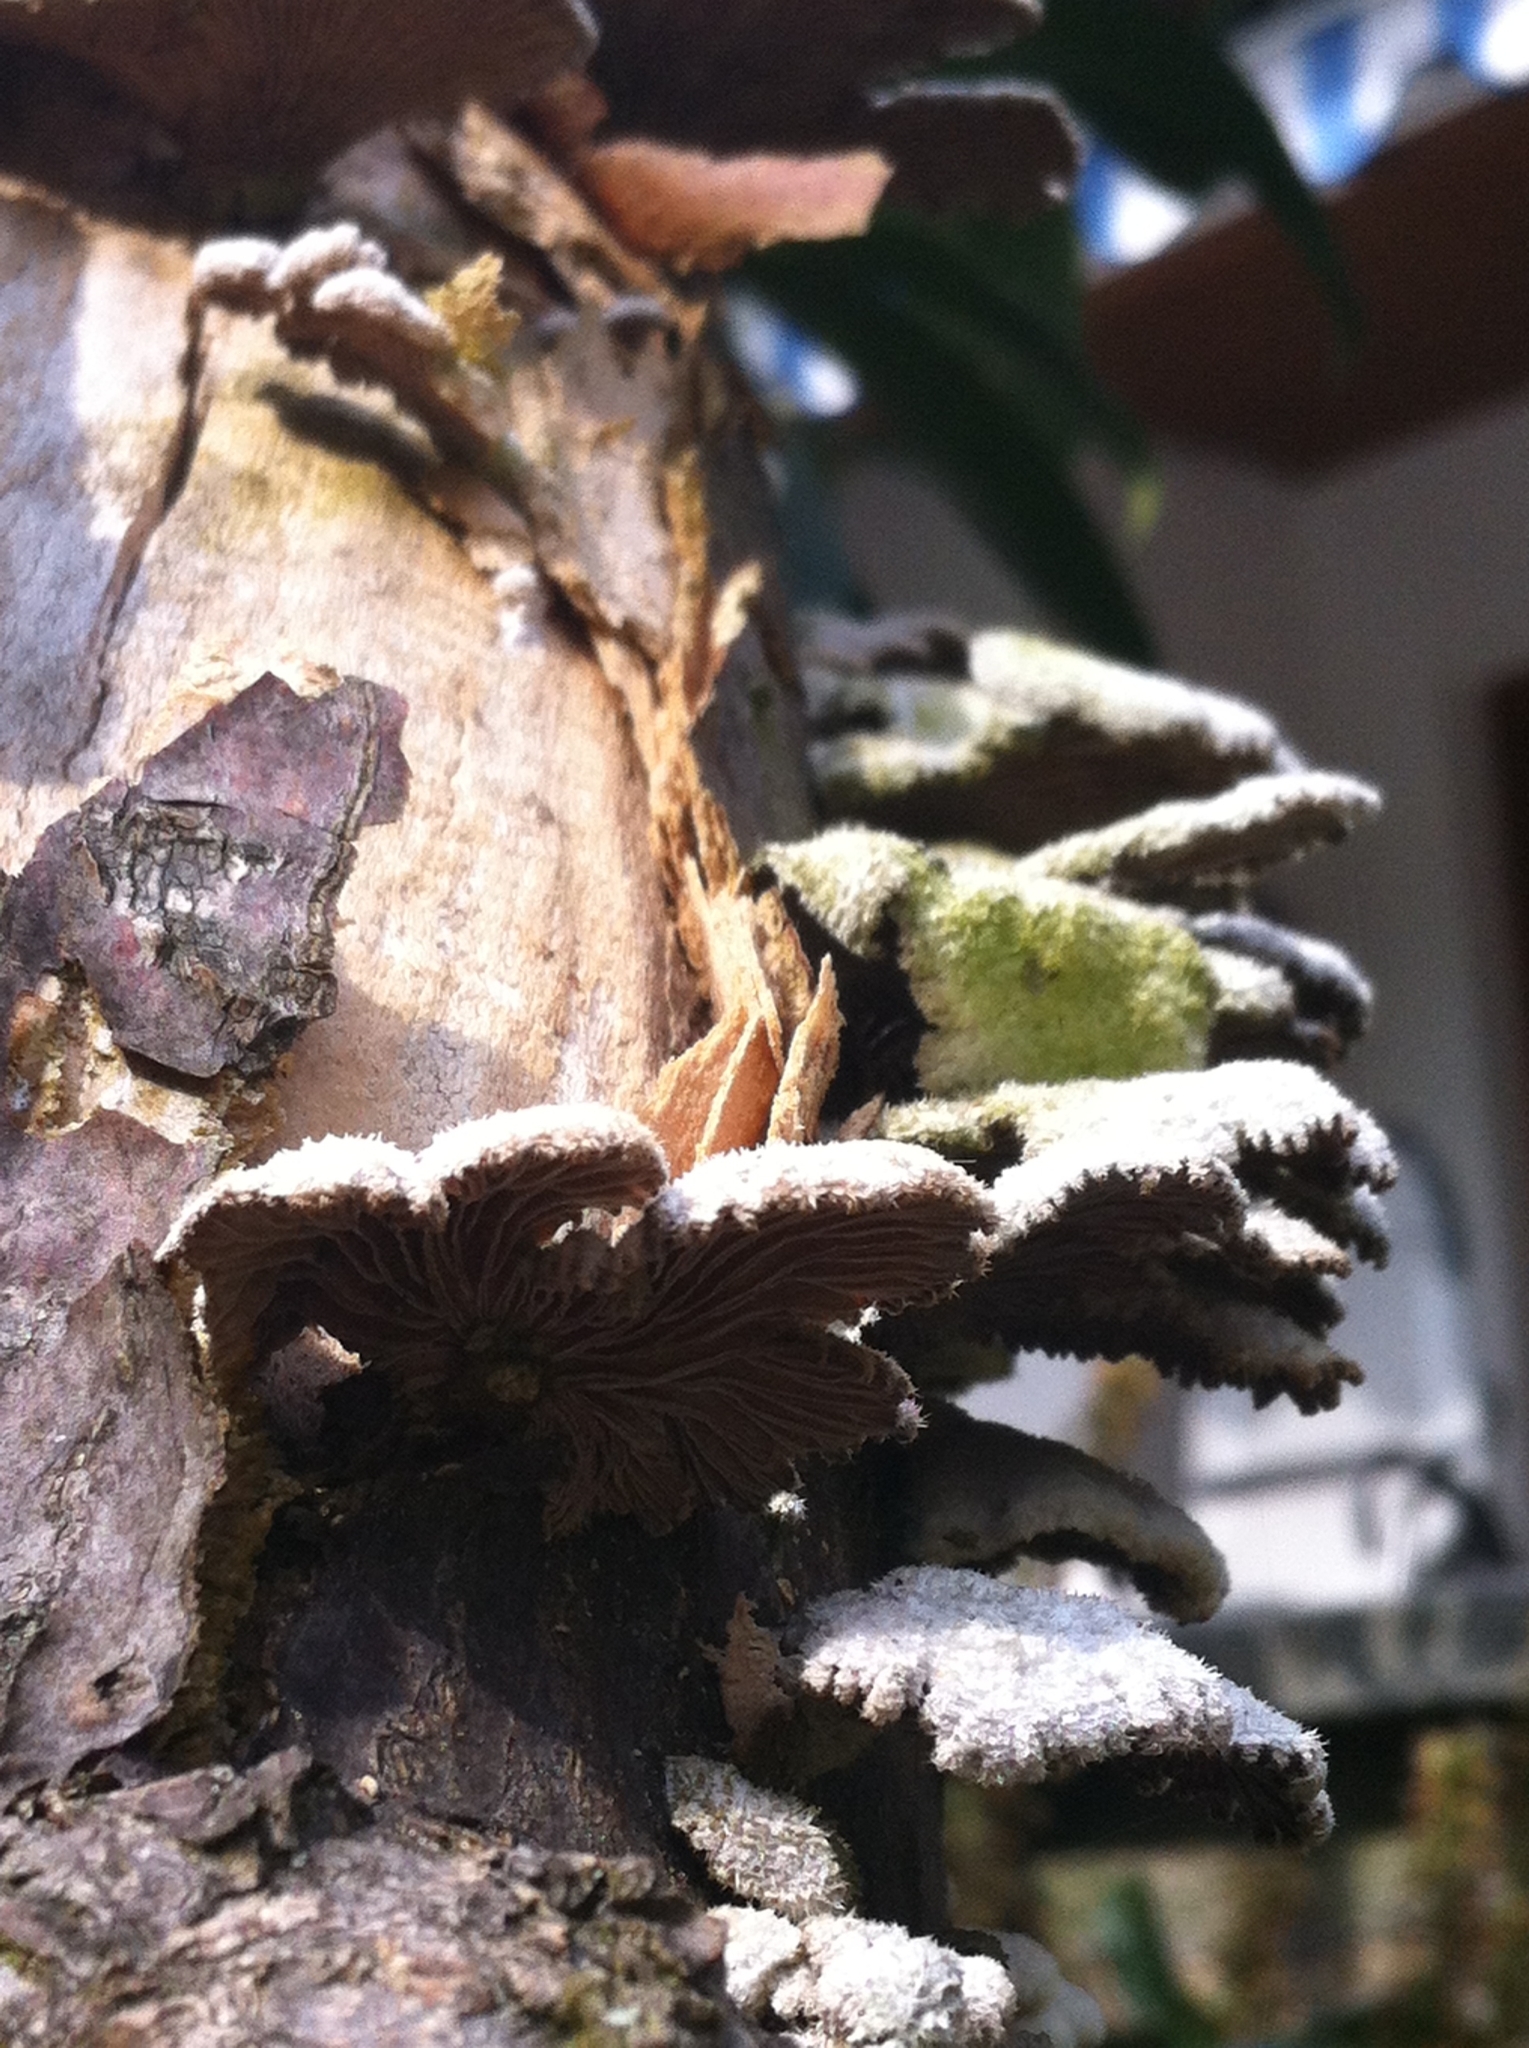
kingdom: Fungi
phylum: Basidiomycota
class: Agaricomycetes
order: Agaricales
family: Schizophyllaceae
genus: Schizophyllum
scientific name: Schizophyllum commune
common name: Common porecrust
